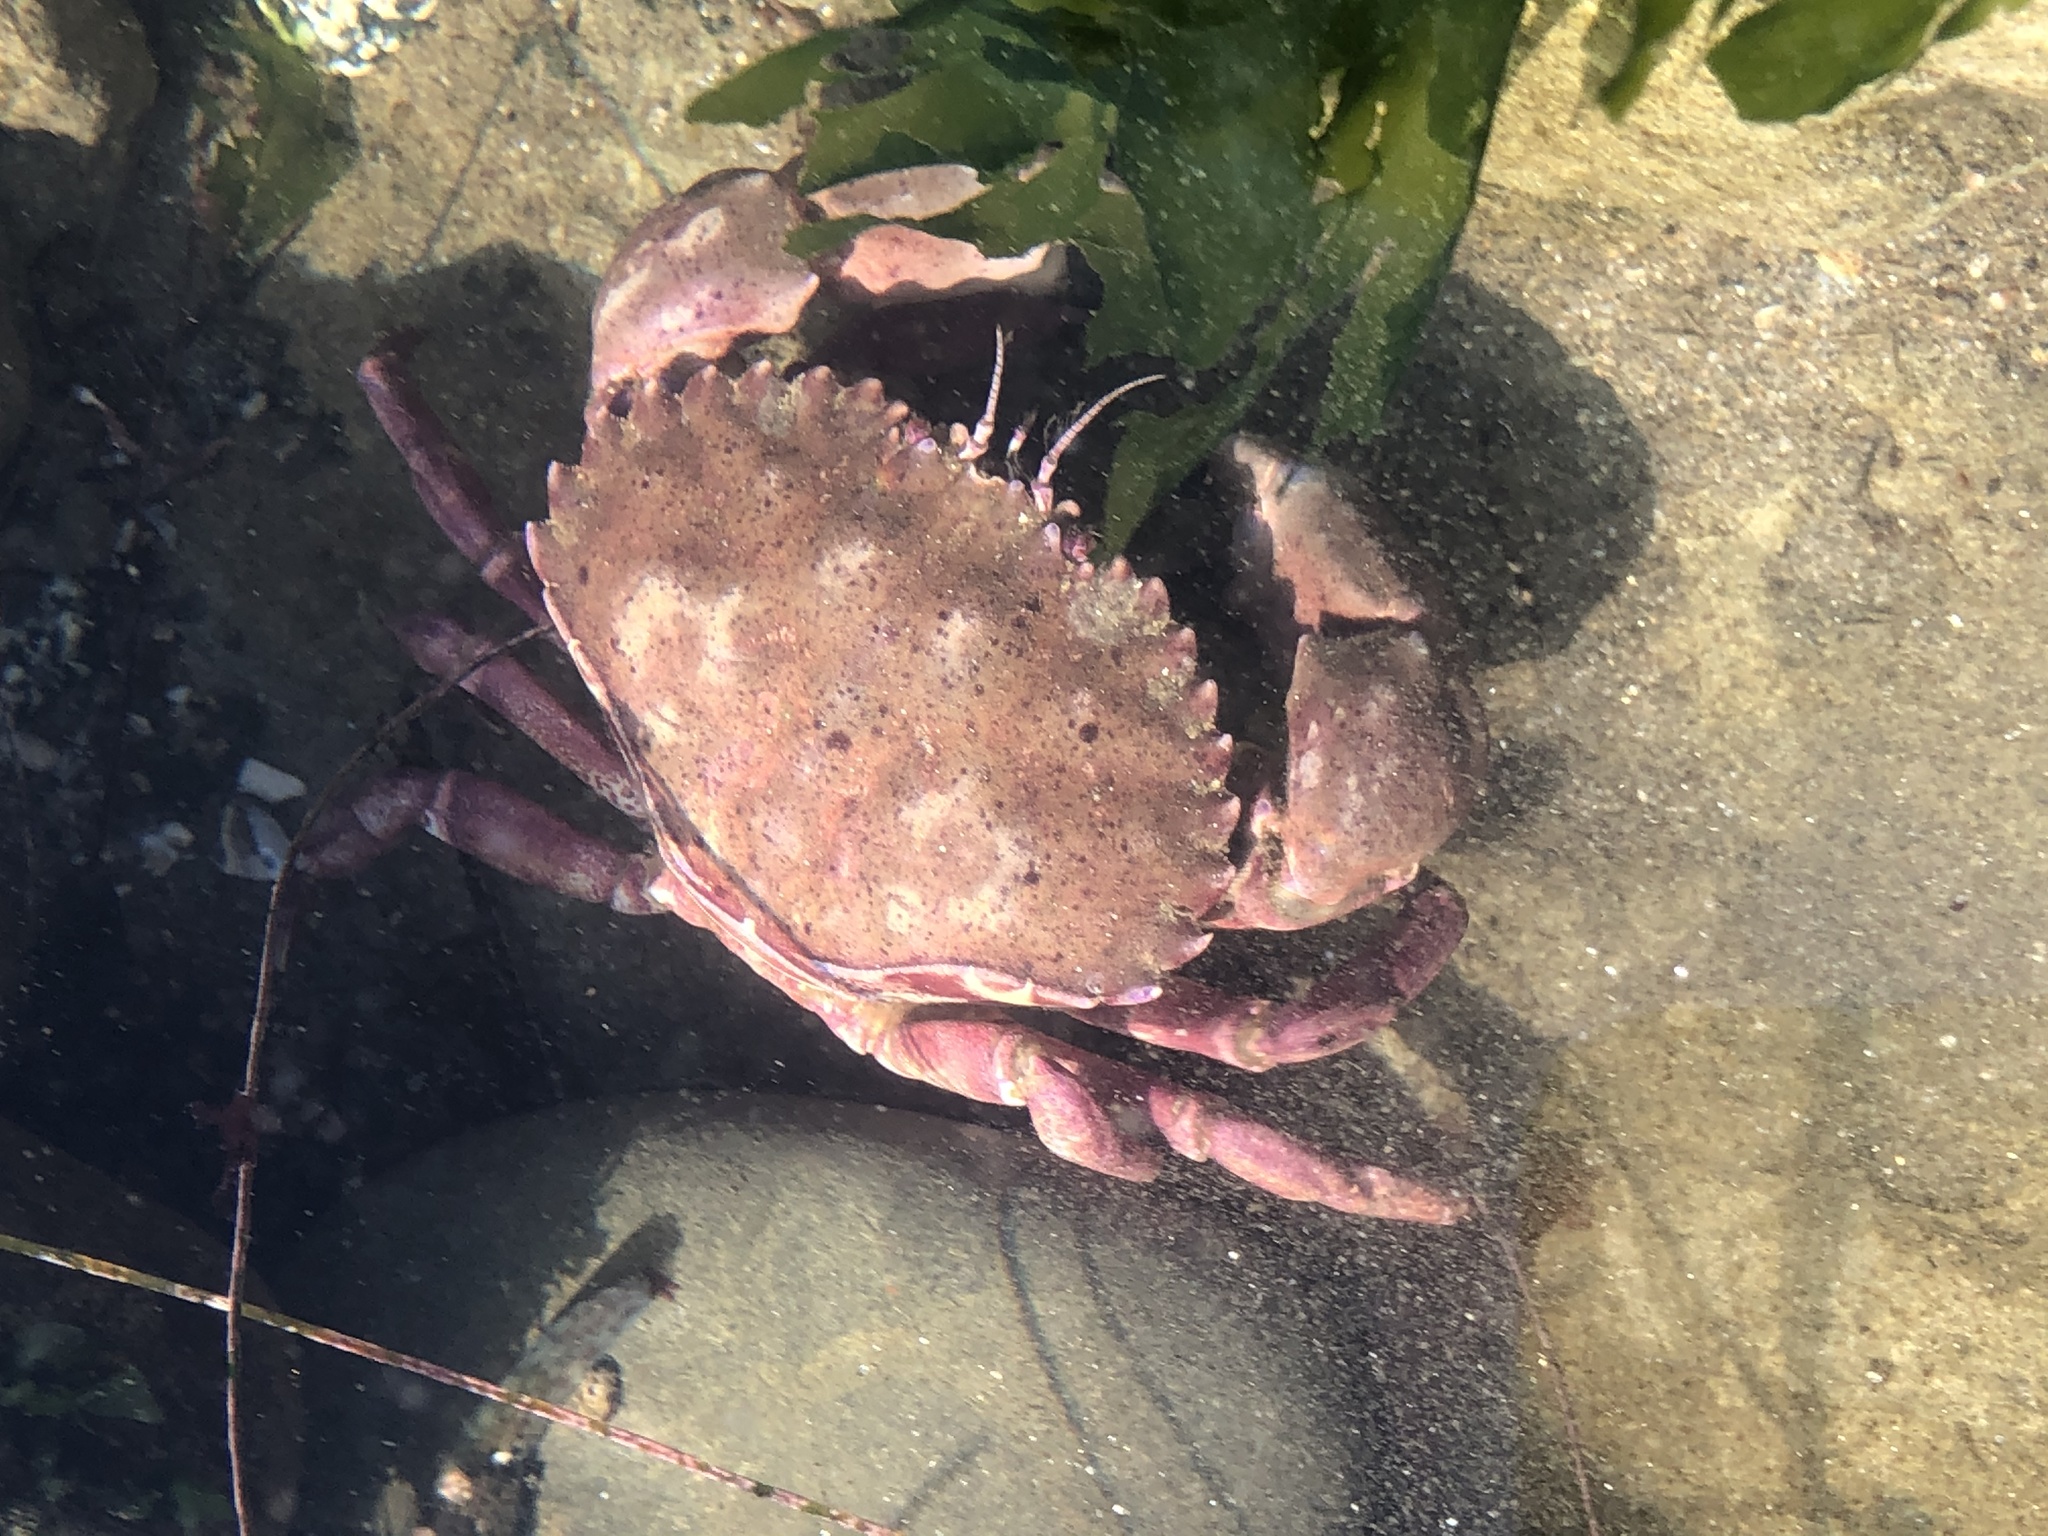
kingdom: Animalia
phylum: Arthropoda
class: Malacostraca
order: Decapoda
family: Cancridae
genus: Romaleon
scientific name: Romaleon antennarium
